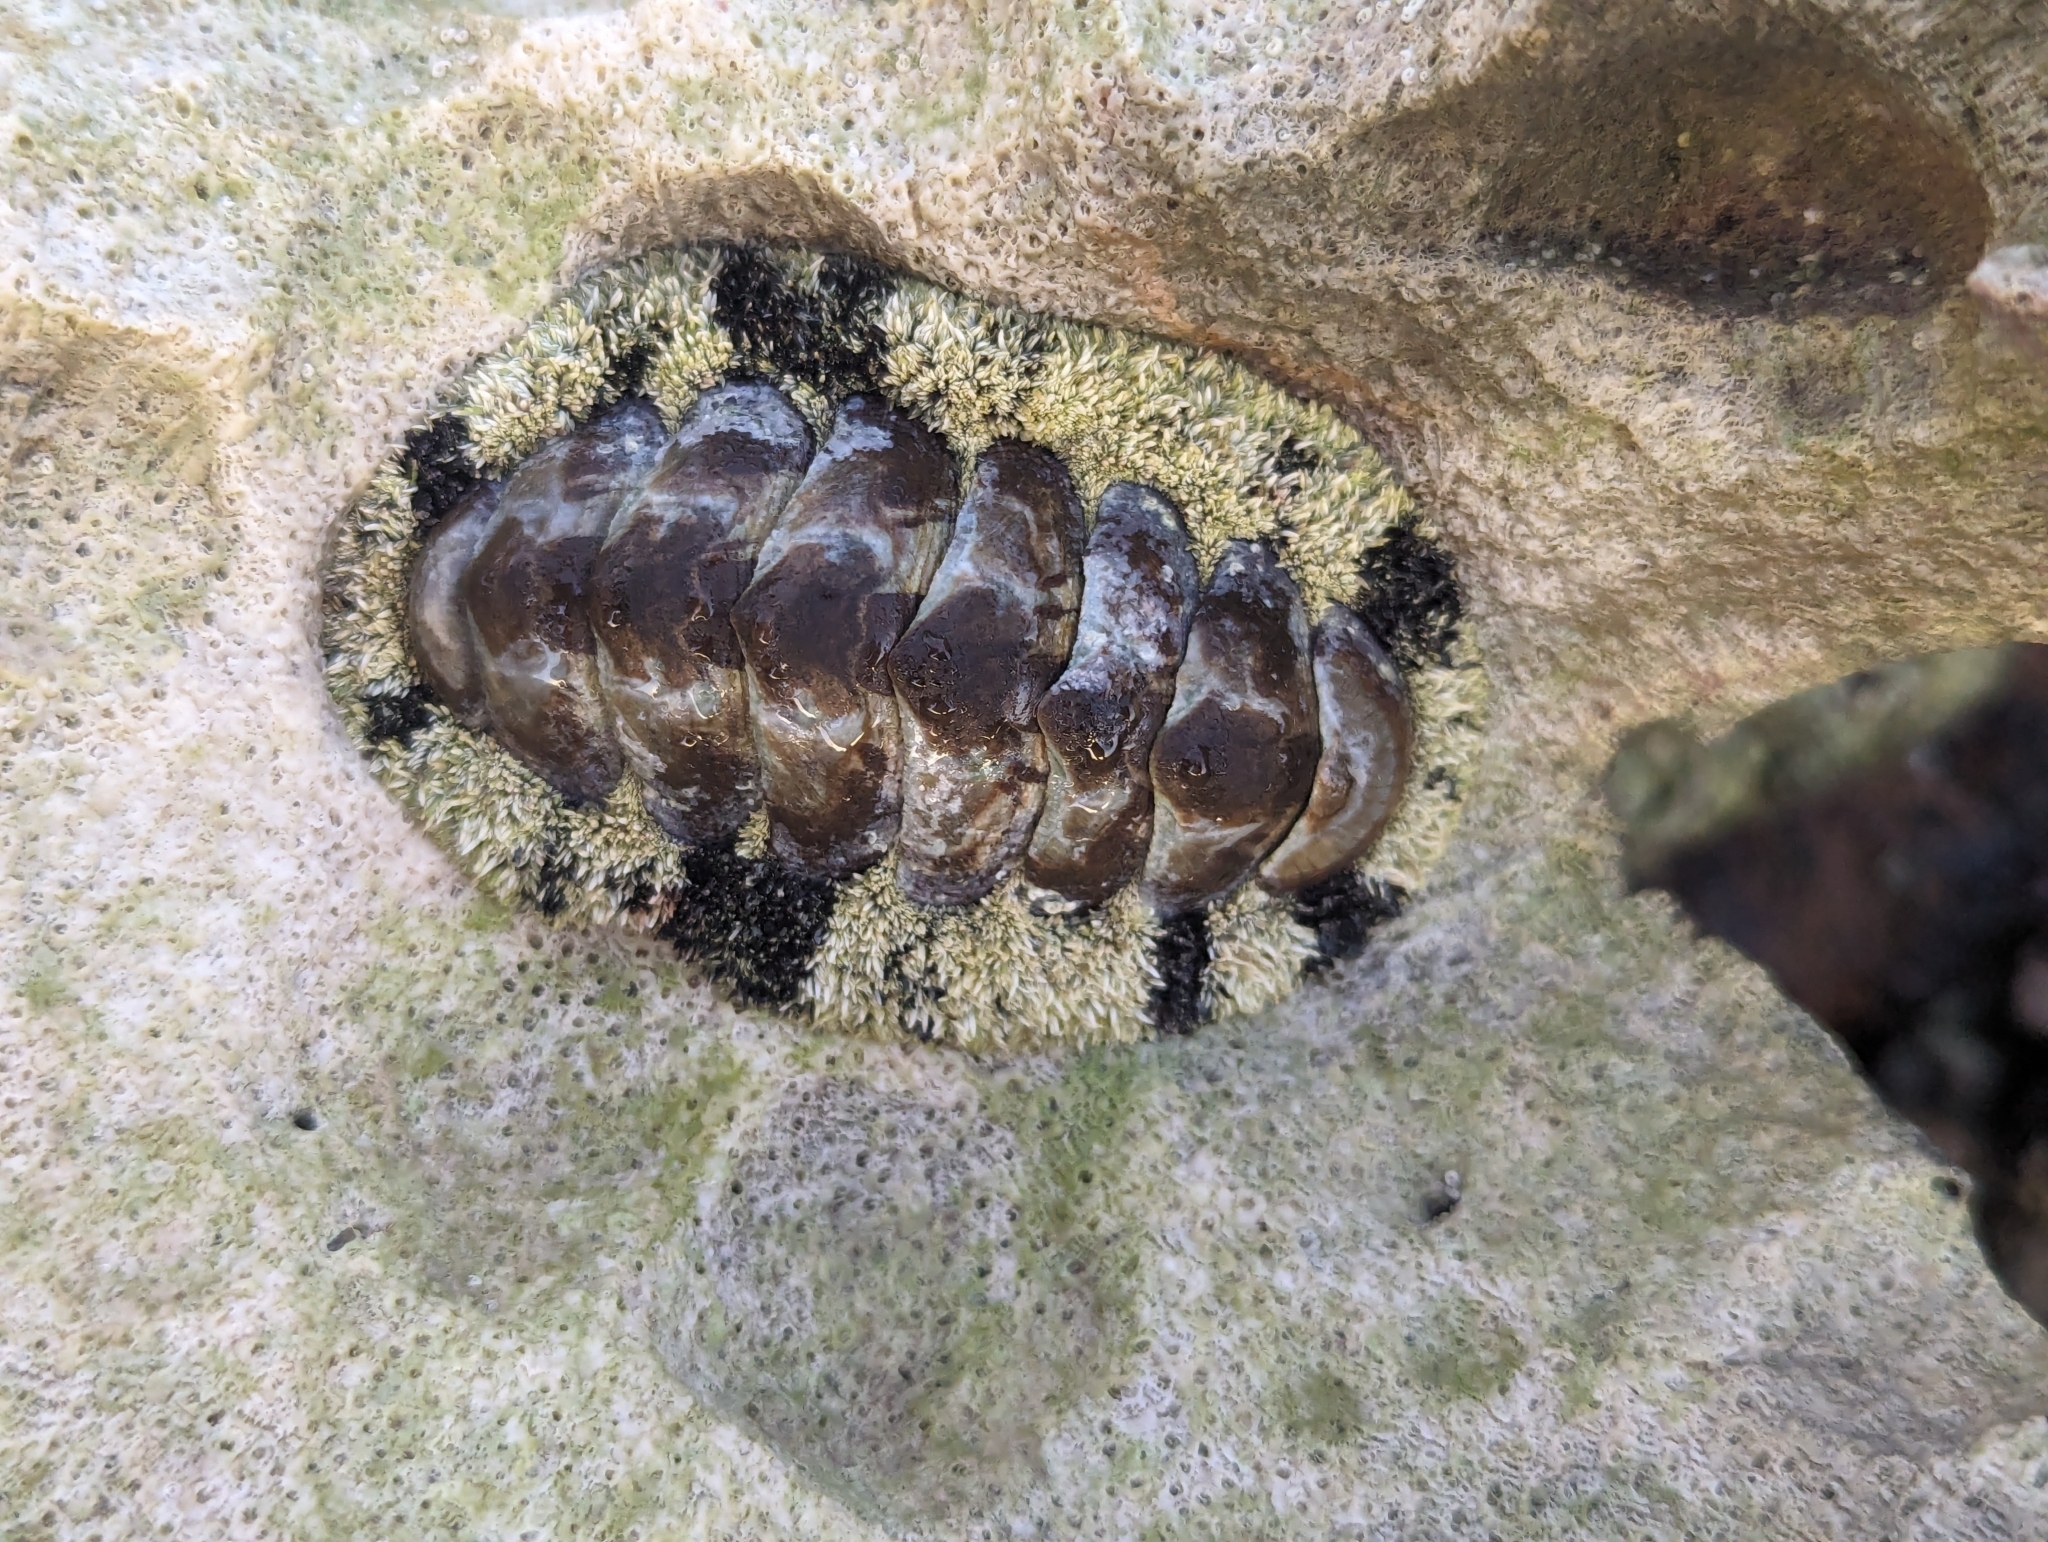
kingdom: Animalia
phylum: Mollusca
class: Polyplacophora
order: Chitonida
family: Chitonidae
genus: Acanthopleura
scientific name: Acanthopleura granulata
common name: West indian fuzzy chiton
